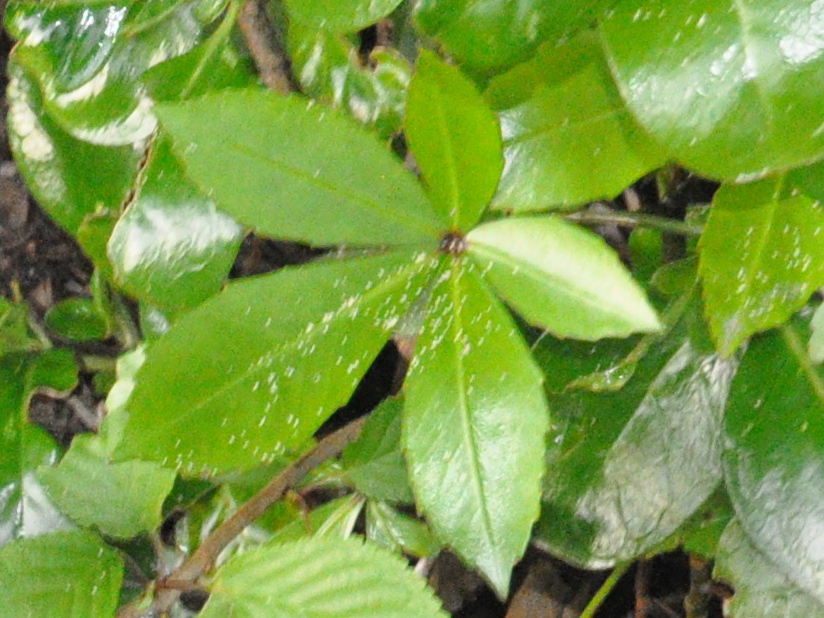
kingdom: Plantae
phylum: Tracheophyta
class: Magnoliopsida
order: Apiales
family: Araliaceae
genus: Pseudopanax
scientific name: Pseudopanax lessonii
